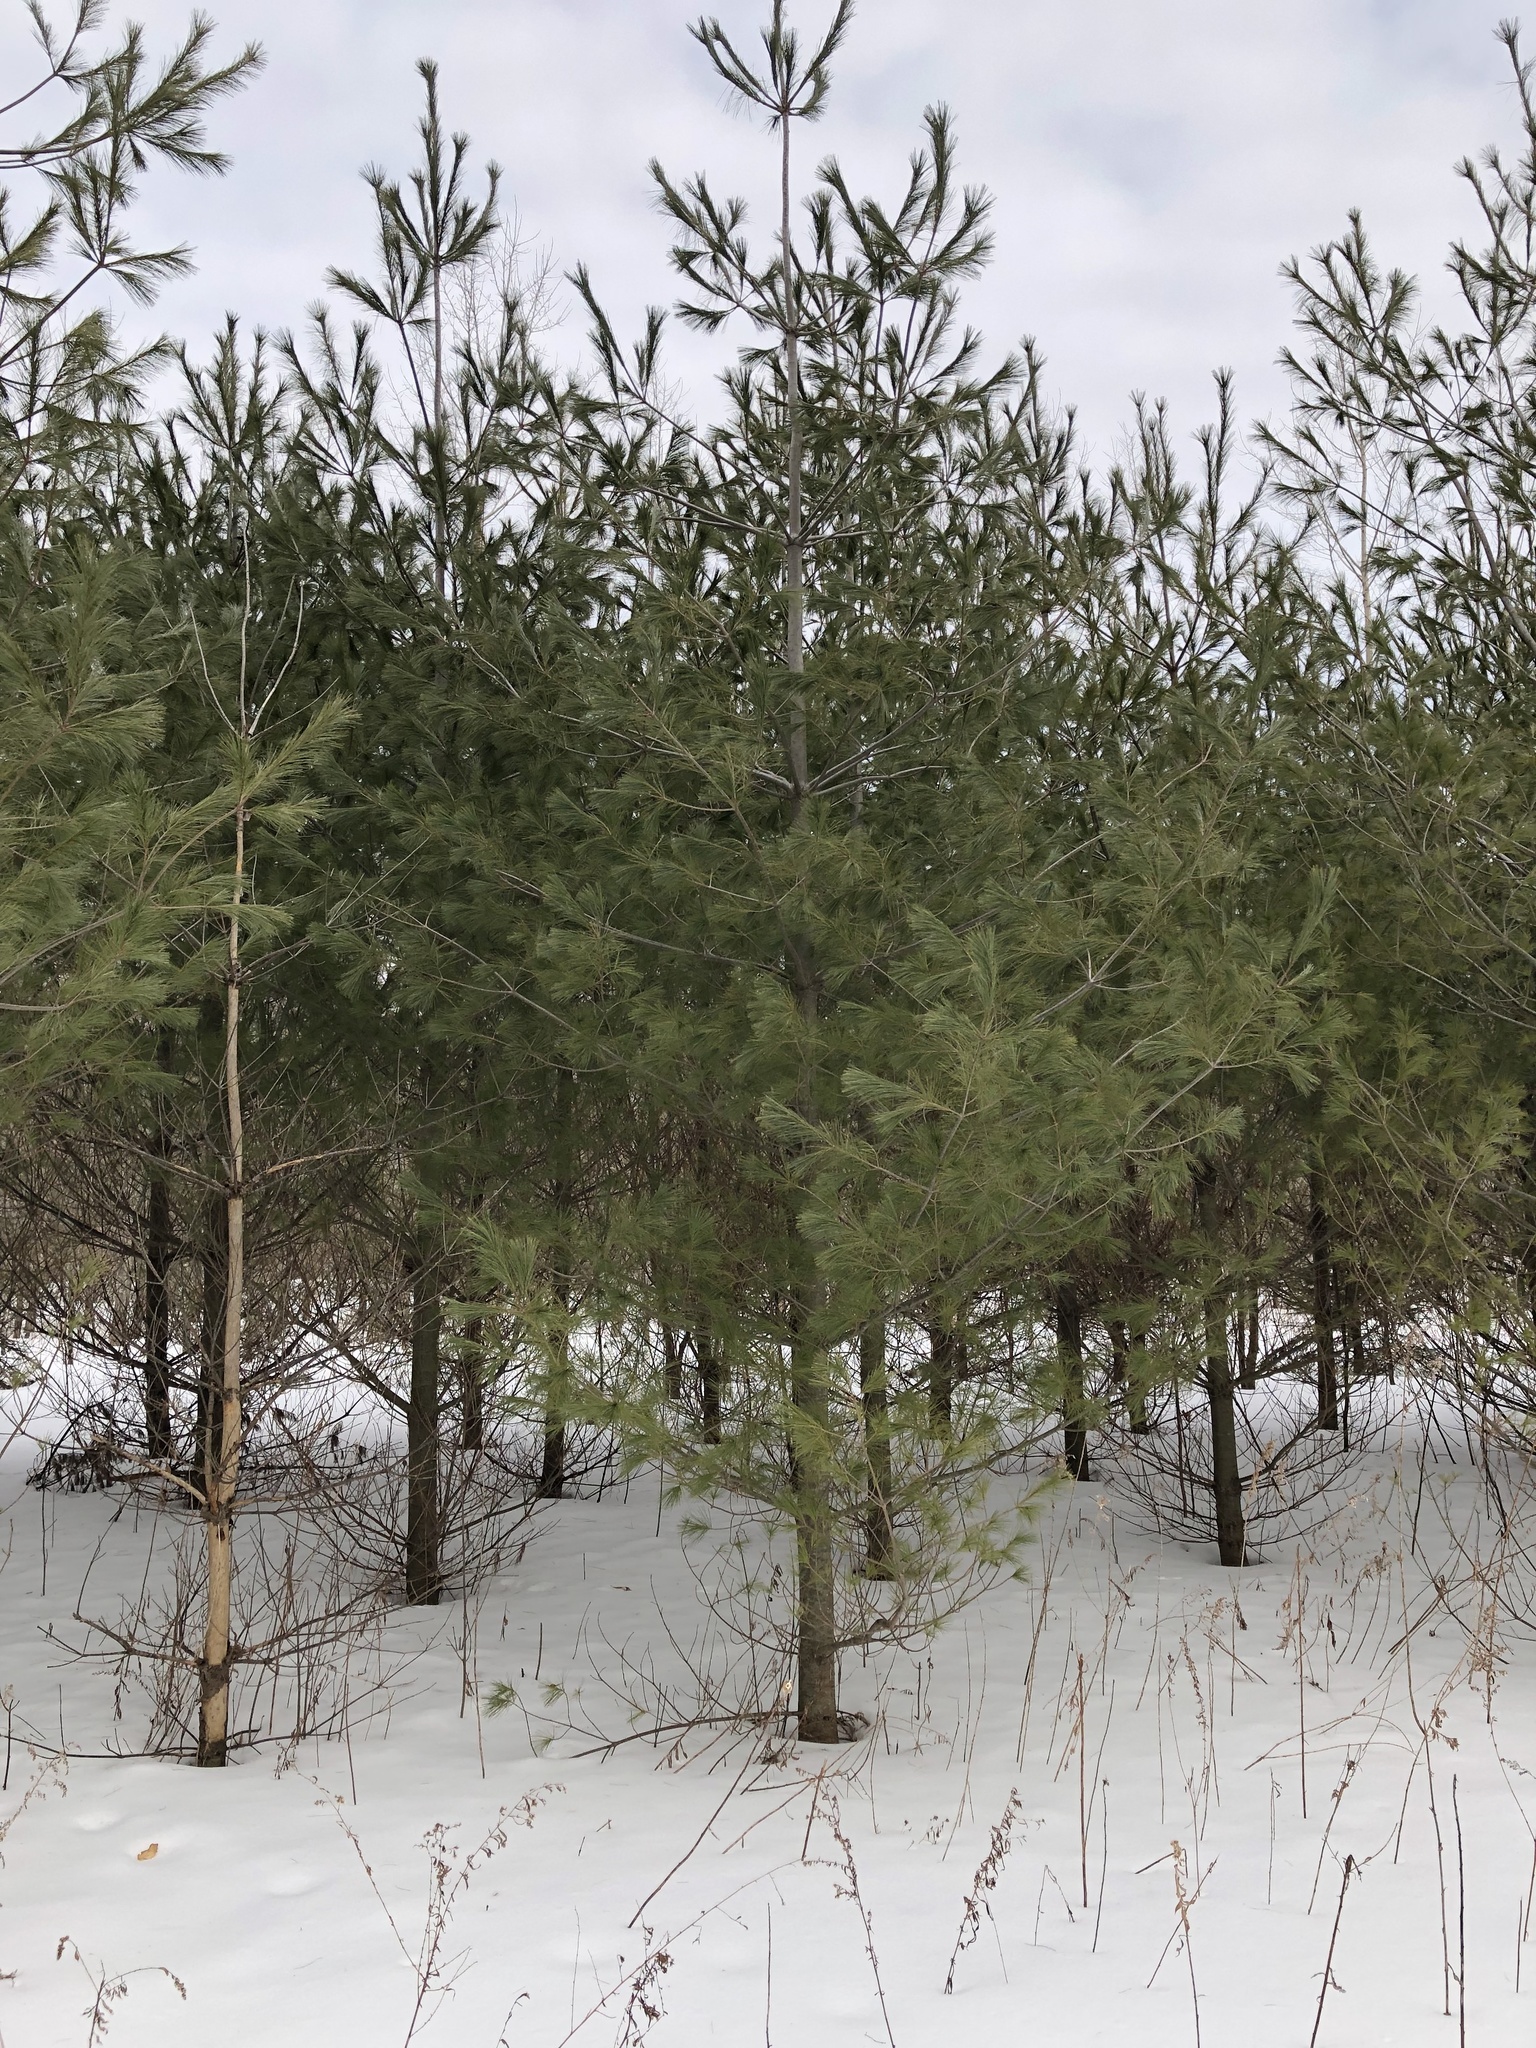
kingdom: Plantae
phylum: Tracheophyta
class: Pinopsida
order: Pinales
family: Pinaceae
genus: Pinus
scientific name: Pinus strobus
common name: Weymouth pine
